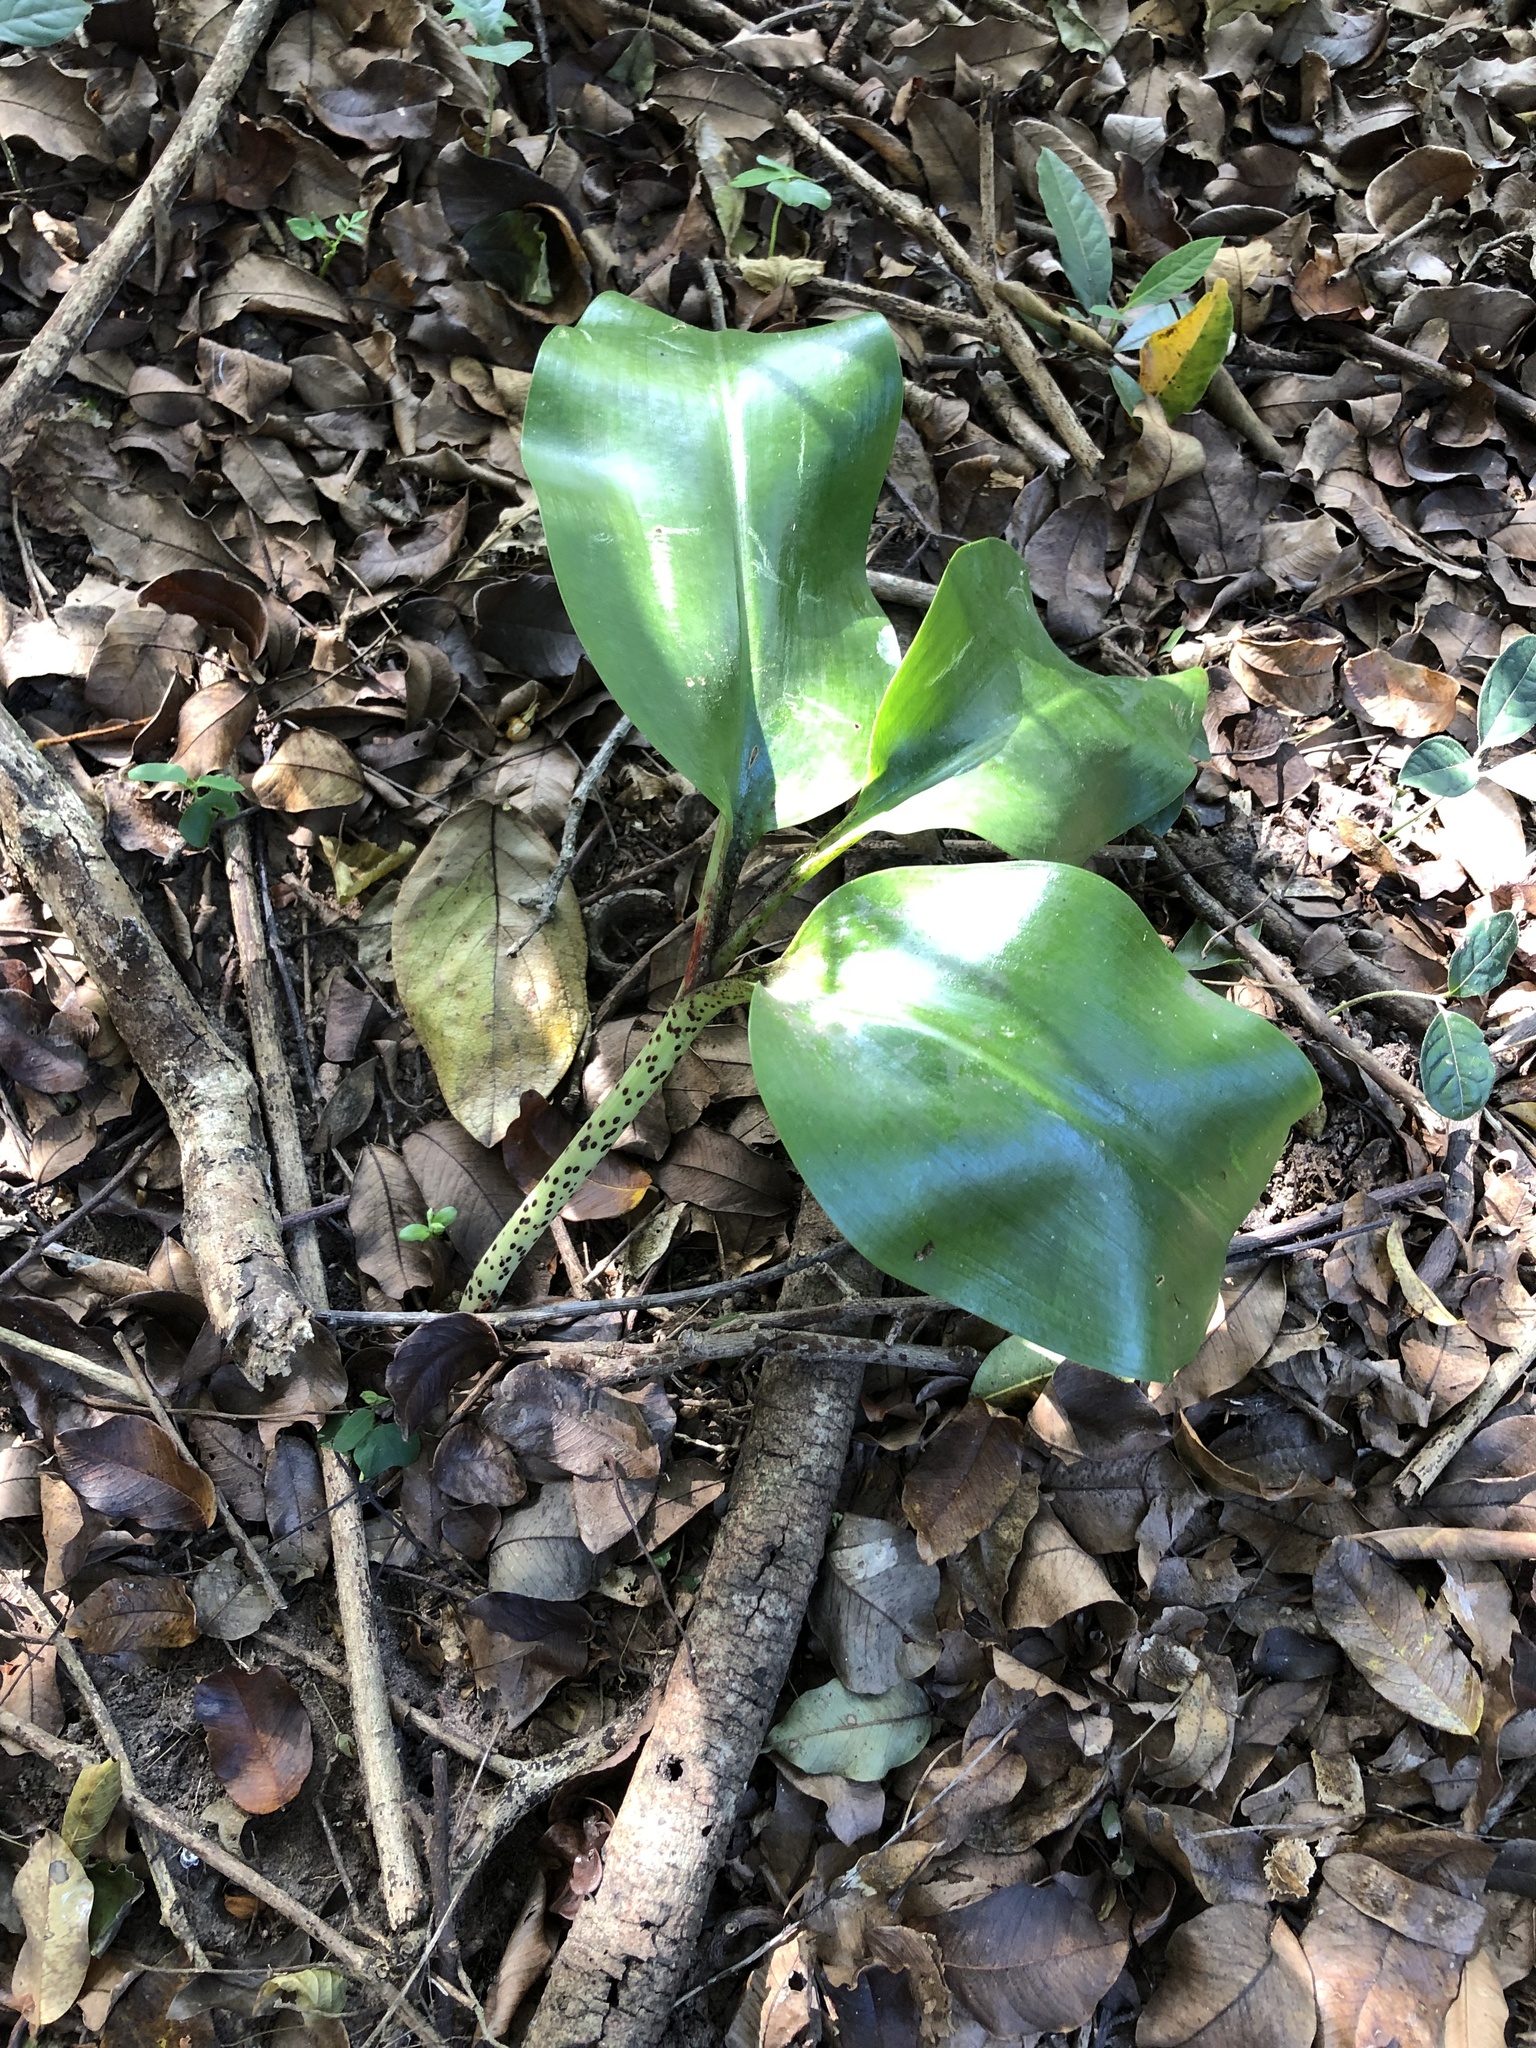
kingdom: Plantae
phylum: Tracheophyta
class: Liliopsida
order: Asparagales
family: Amaryllidaceae
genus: Scadoxus
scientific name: Scadoxus puniceus
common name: Royal-paintbrush
